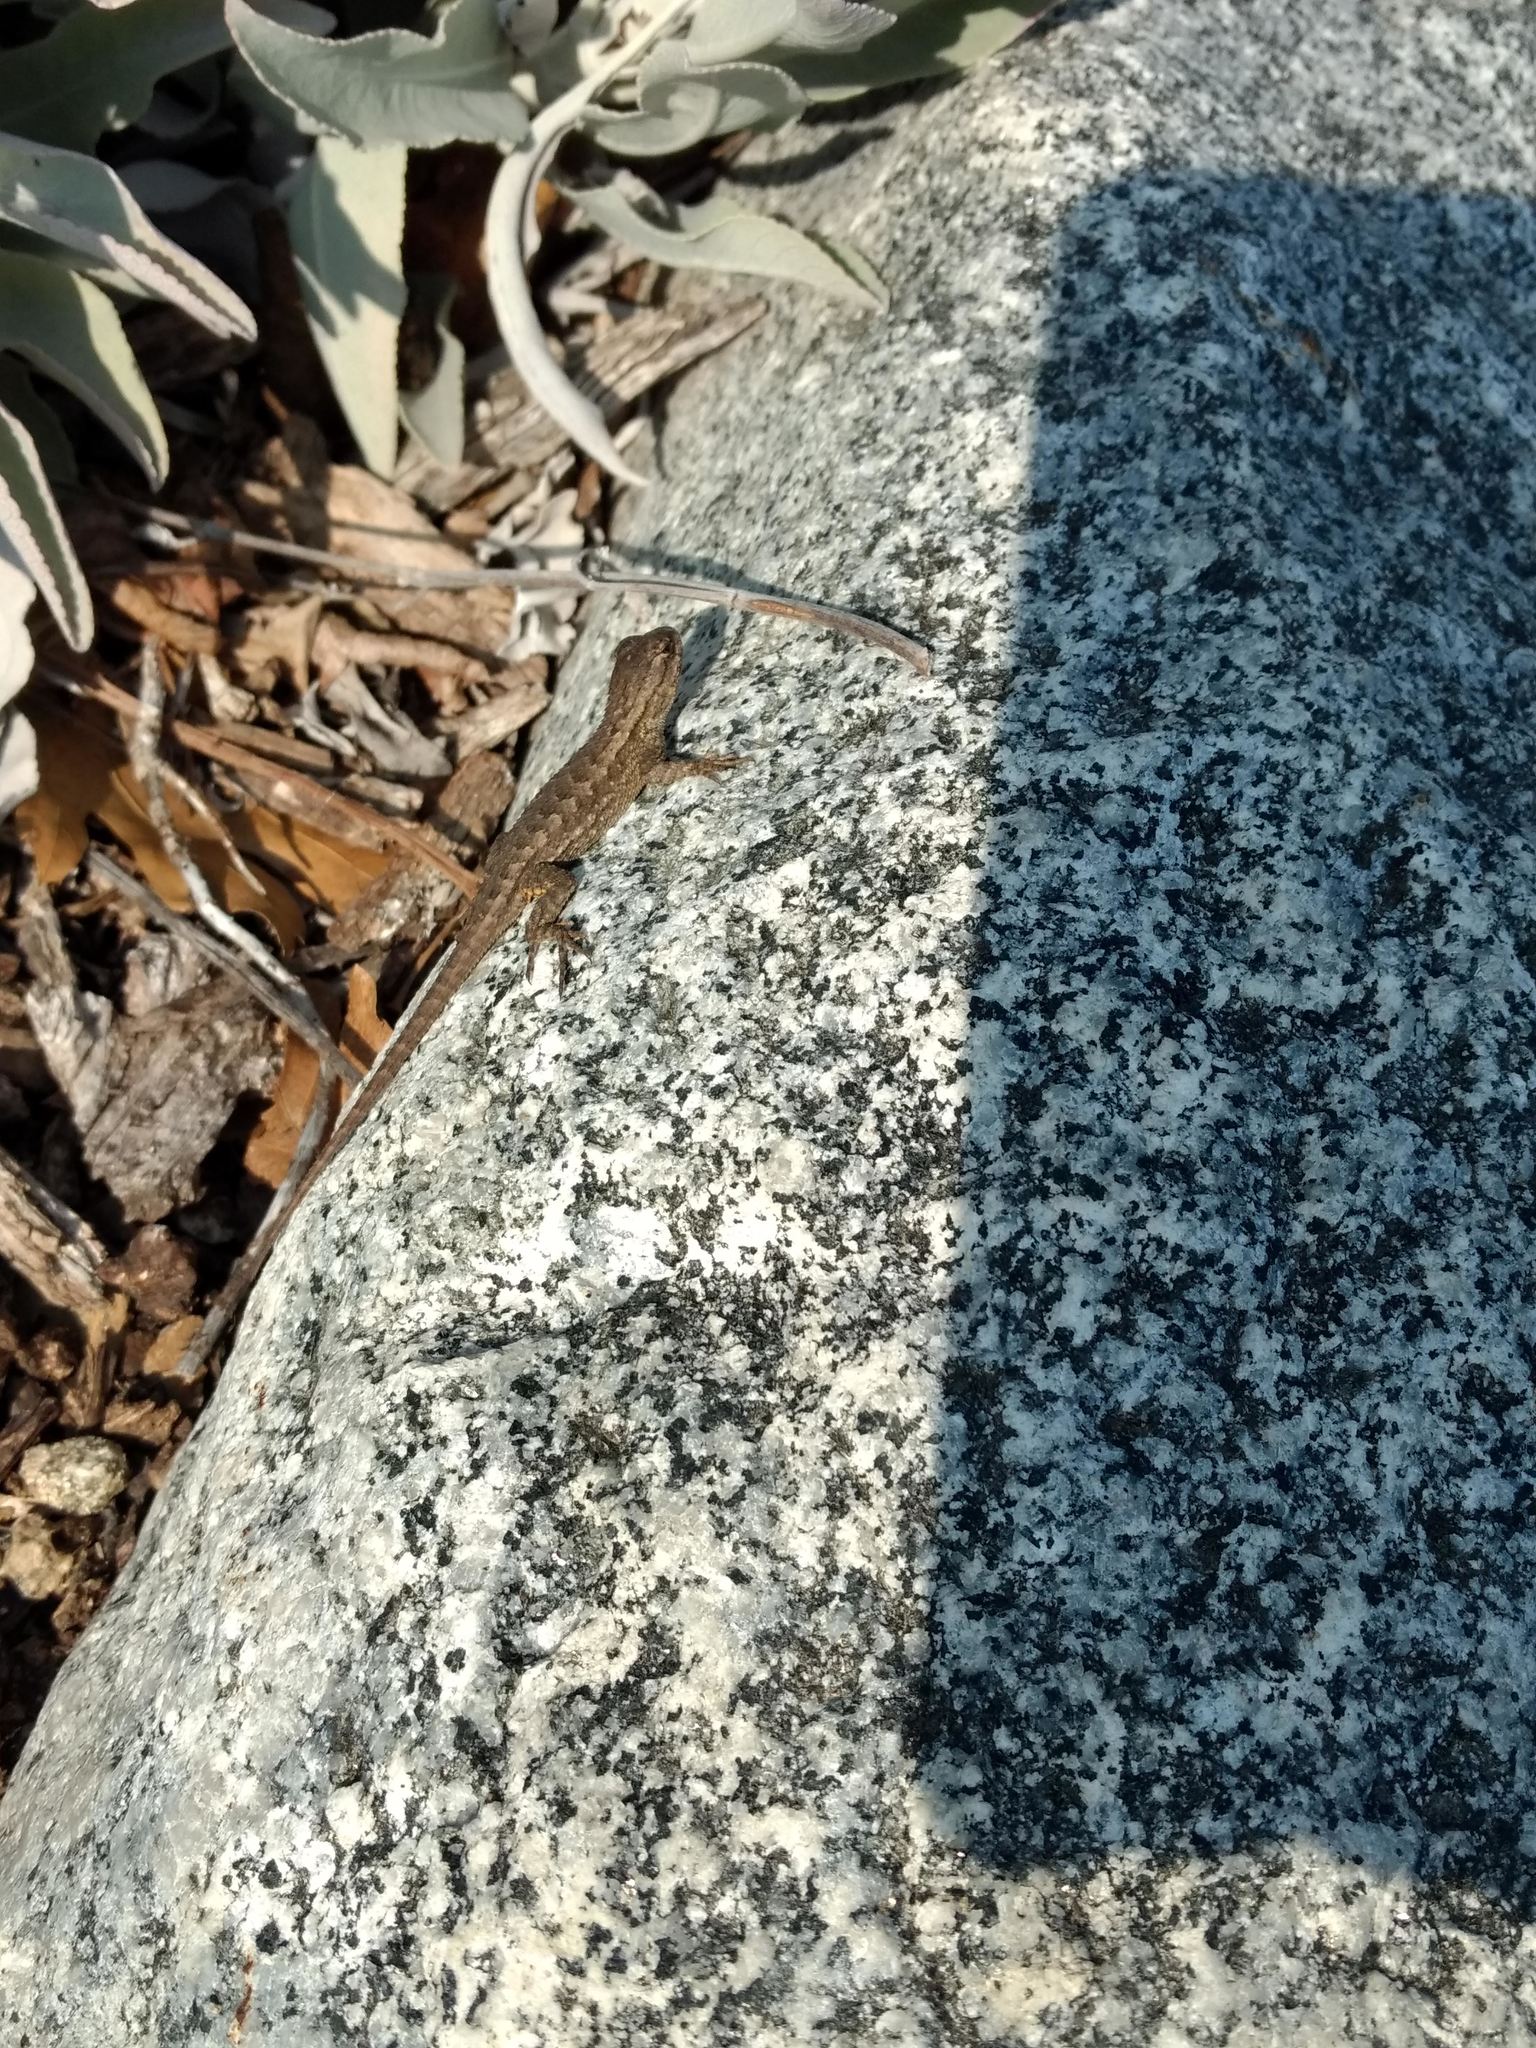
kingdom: Animalia
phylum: Chordata
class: Squamata
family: Phrynosomatidae
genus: Sceloporus
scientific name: Sceloporus occidentalis
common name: Western fence lizard
